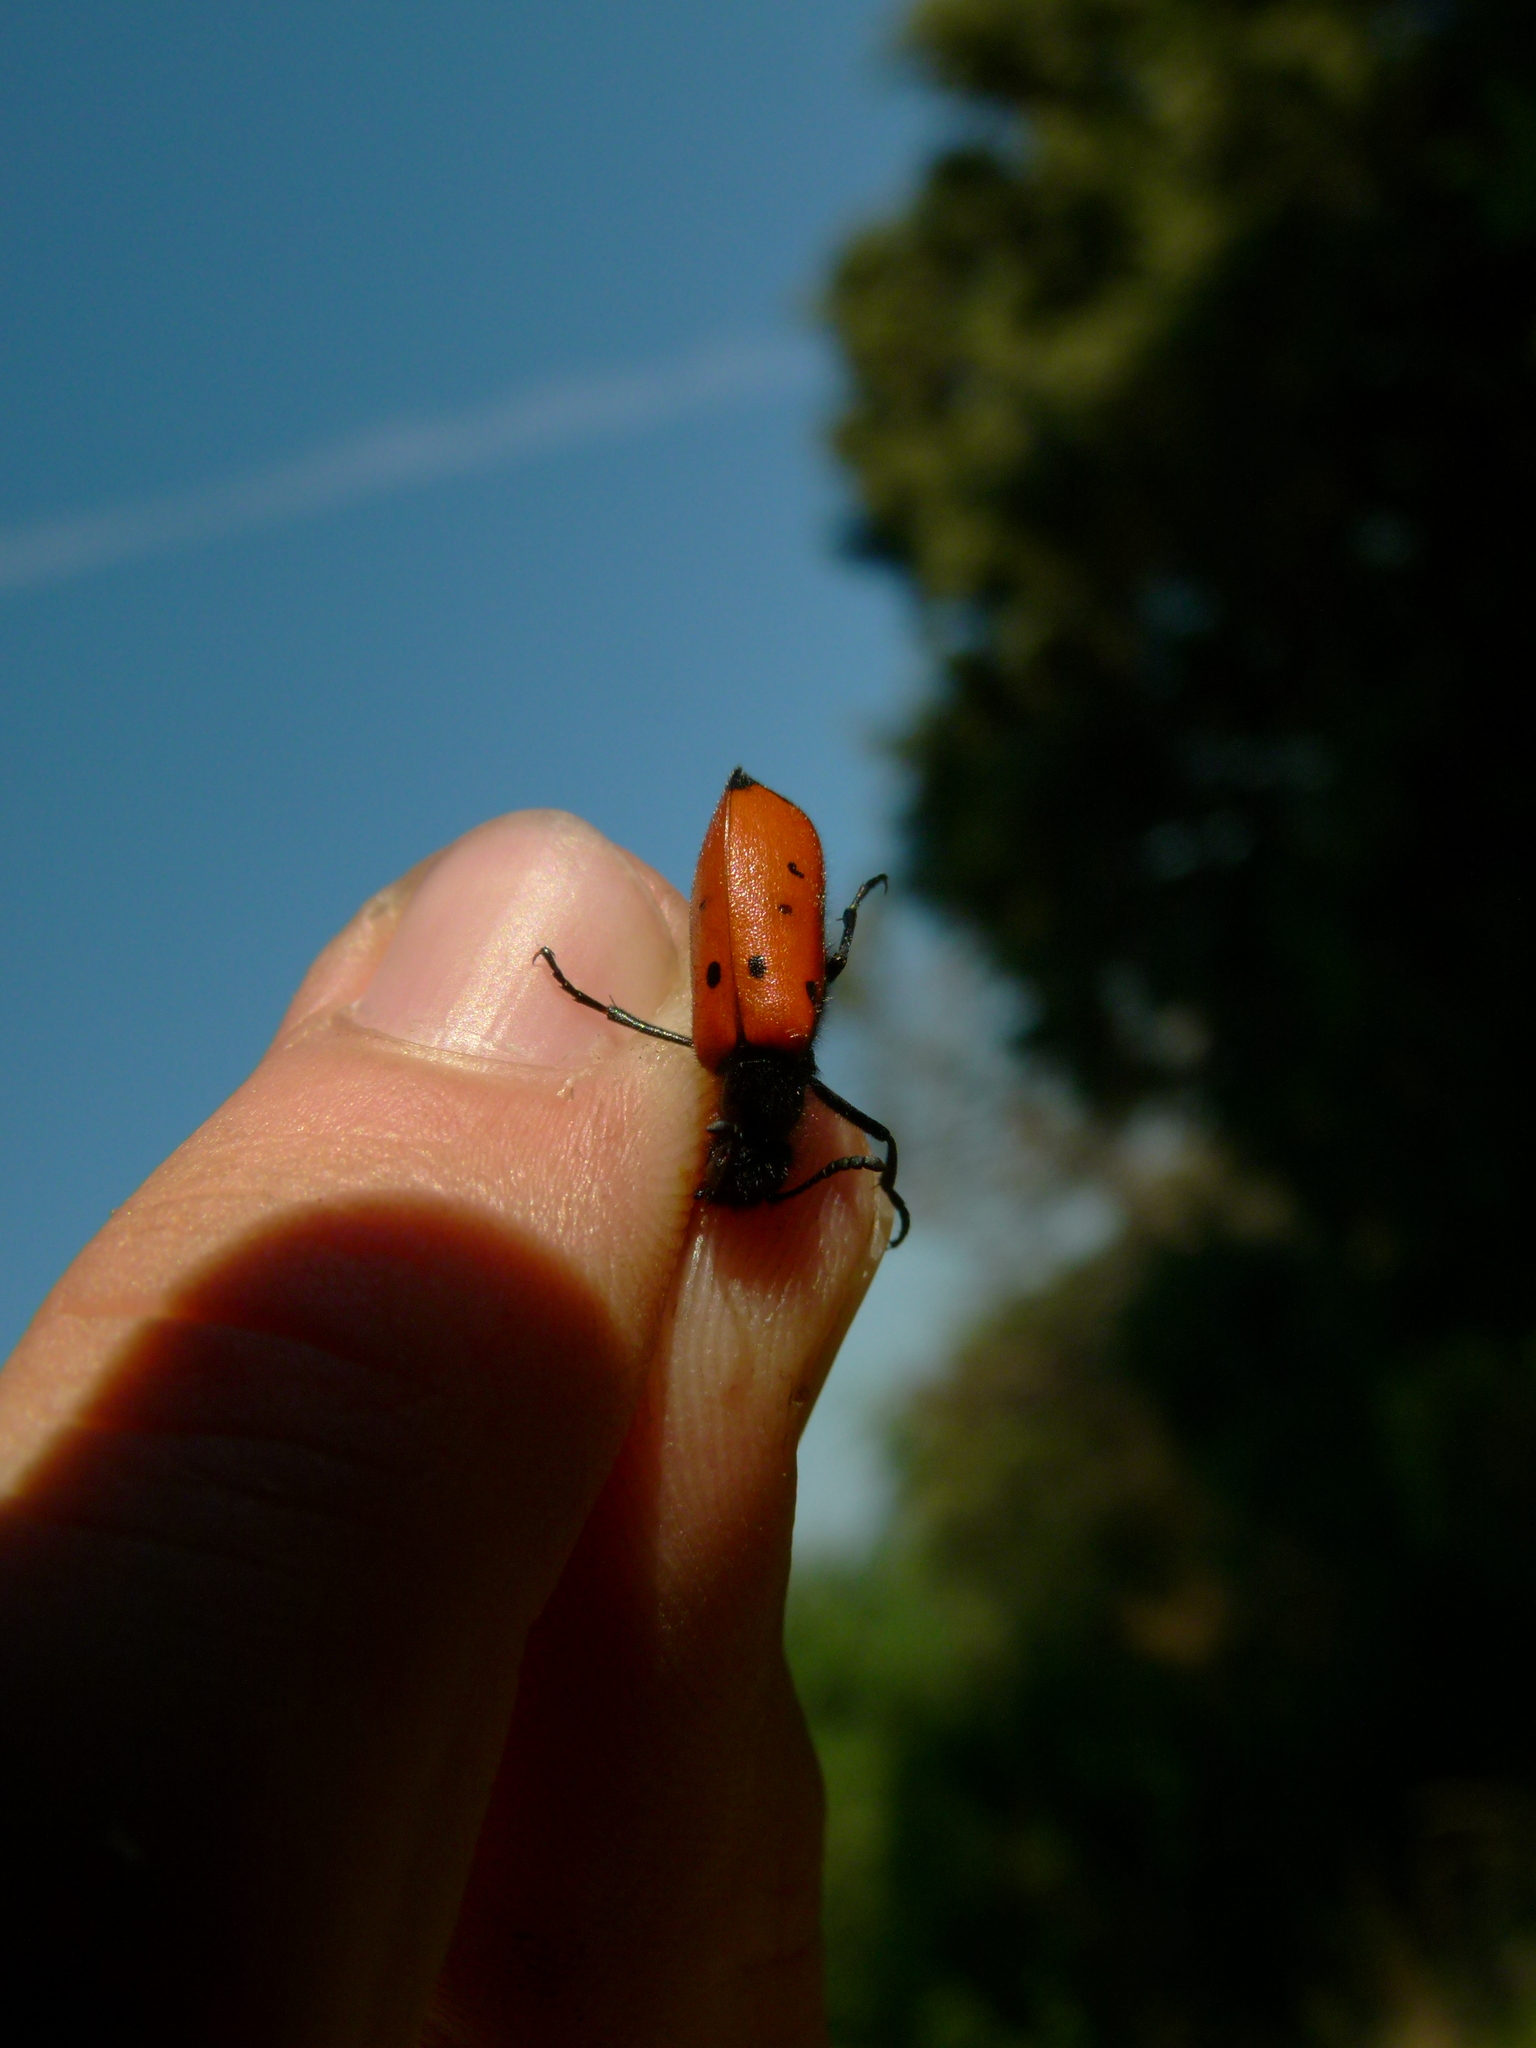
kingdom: Animalia
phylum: Arthropoda
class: Insecta
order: Coleoptera
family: Meloidae
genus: Mylabris
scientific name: Mylabris quadripunctata
